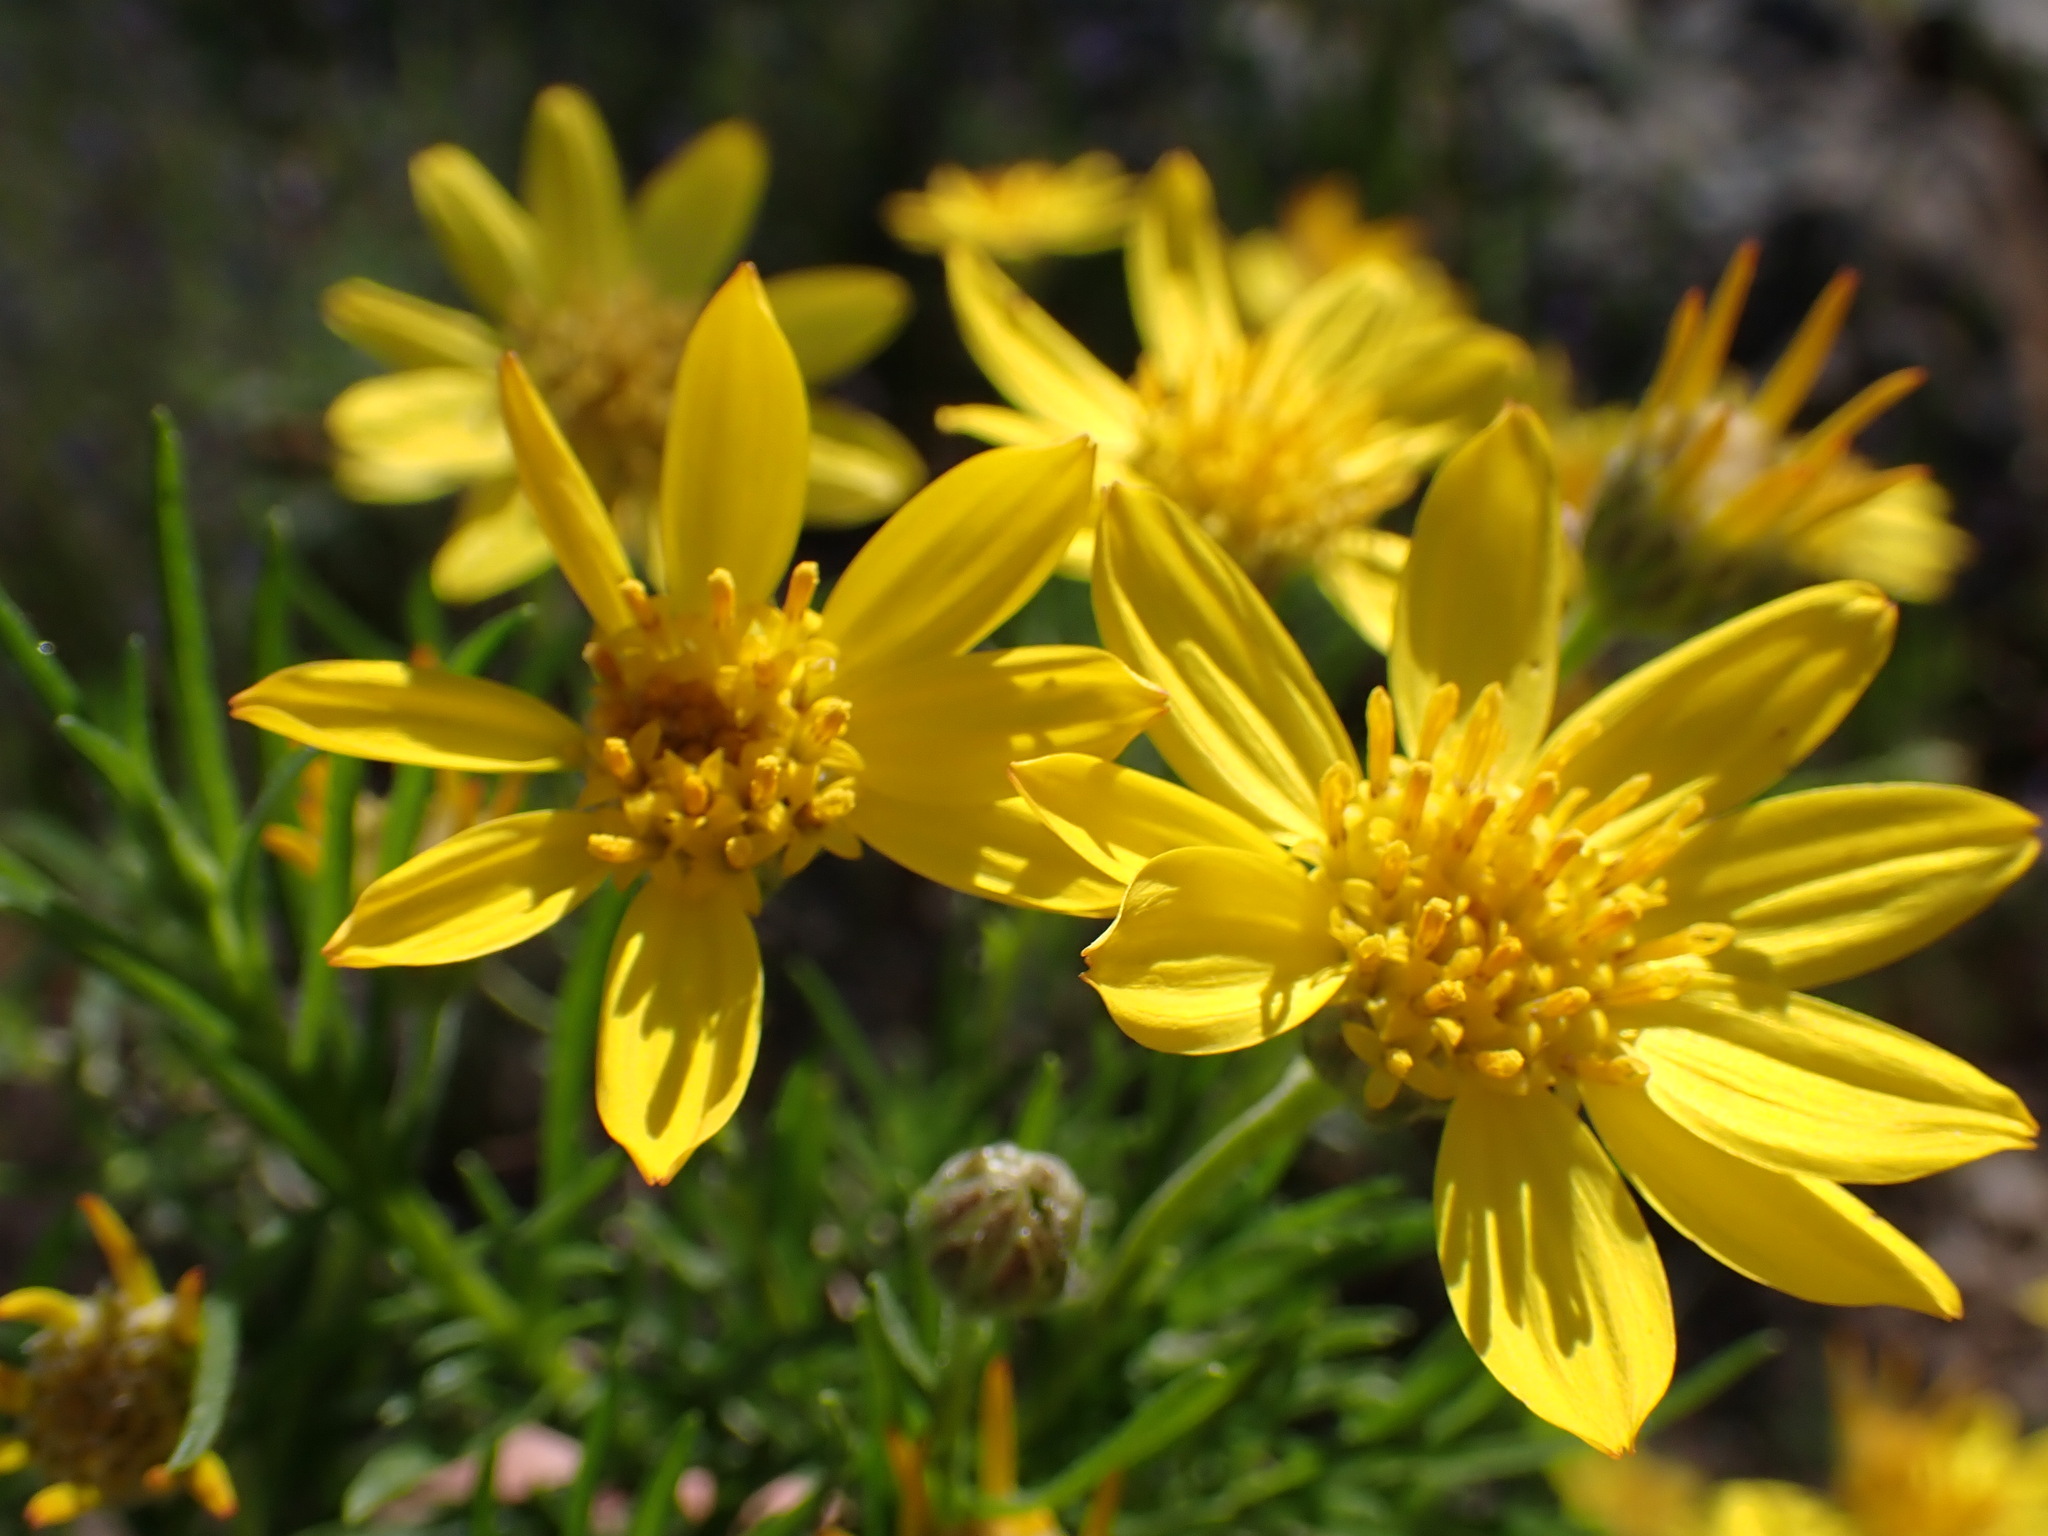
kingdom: Plantae
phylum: Tracheophyta
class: Magnoliopsida
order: Asterales
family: Asteraceae
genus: Ericameria
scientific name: Ericameria linearifolia
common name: Interior goldenbush
